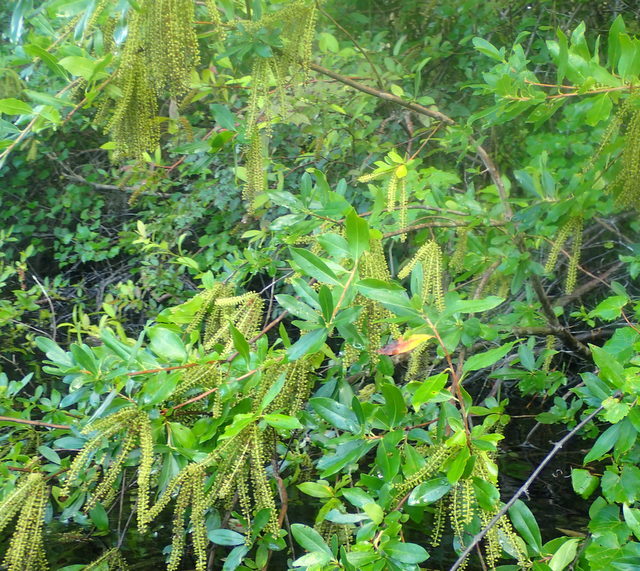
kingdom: Plantae
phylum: Tracheophyta
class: Magnoliopsida
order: Ericales
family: Cyrillaceae
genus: Cyrilla
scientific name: Cyrilla racemiflora
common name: Black titi
